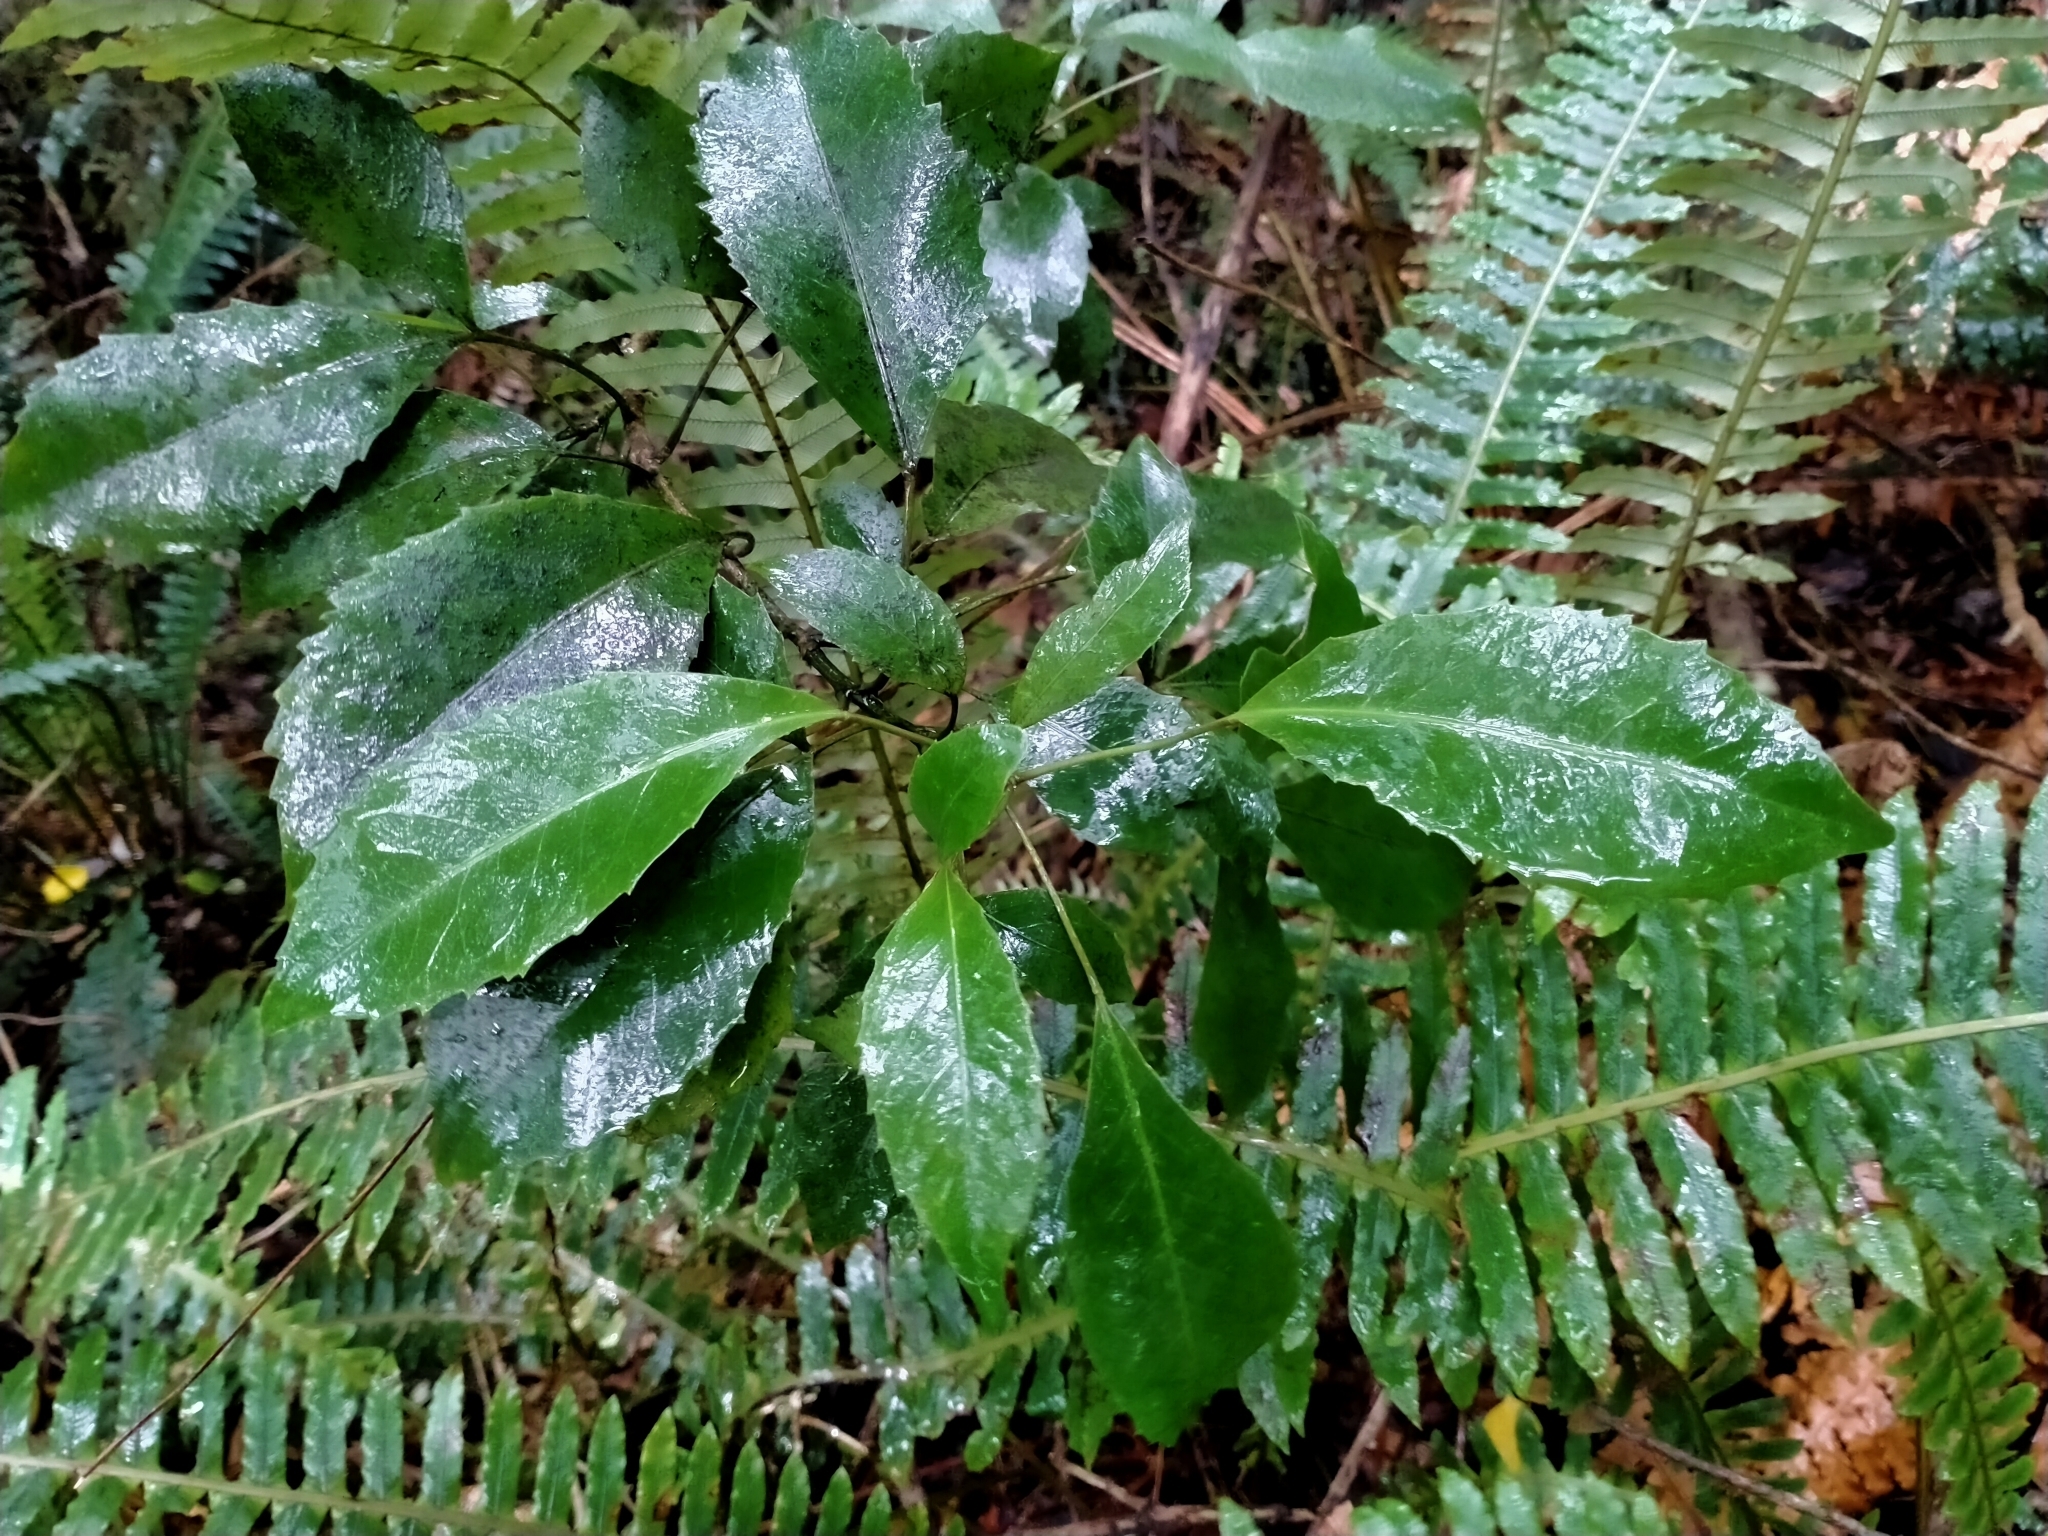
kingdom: Plantae
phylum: Tracheophyta
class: Magnoliopsida
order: Apiales
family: Araliaceae
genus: Raukaua
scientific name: Raukaua simplex
